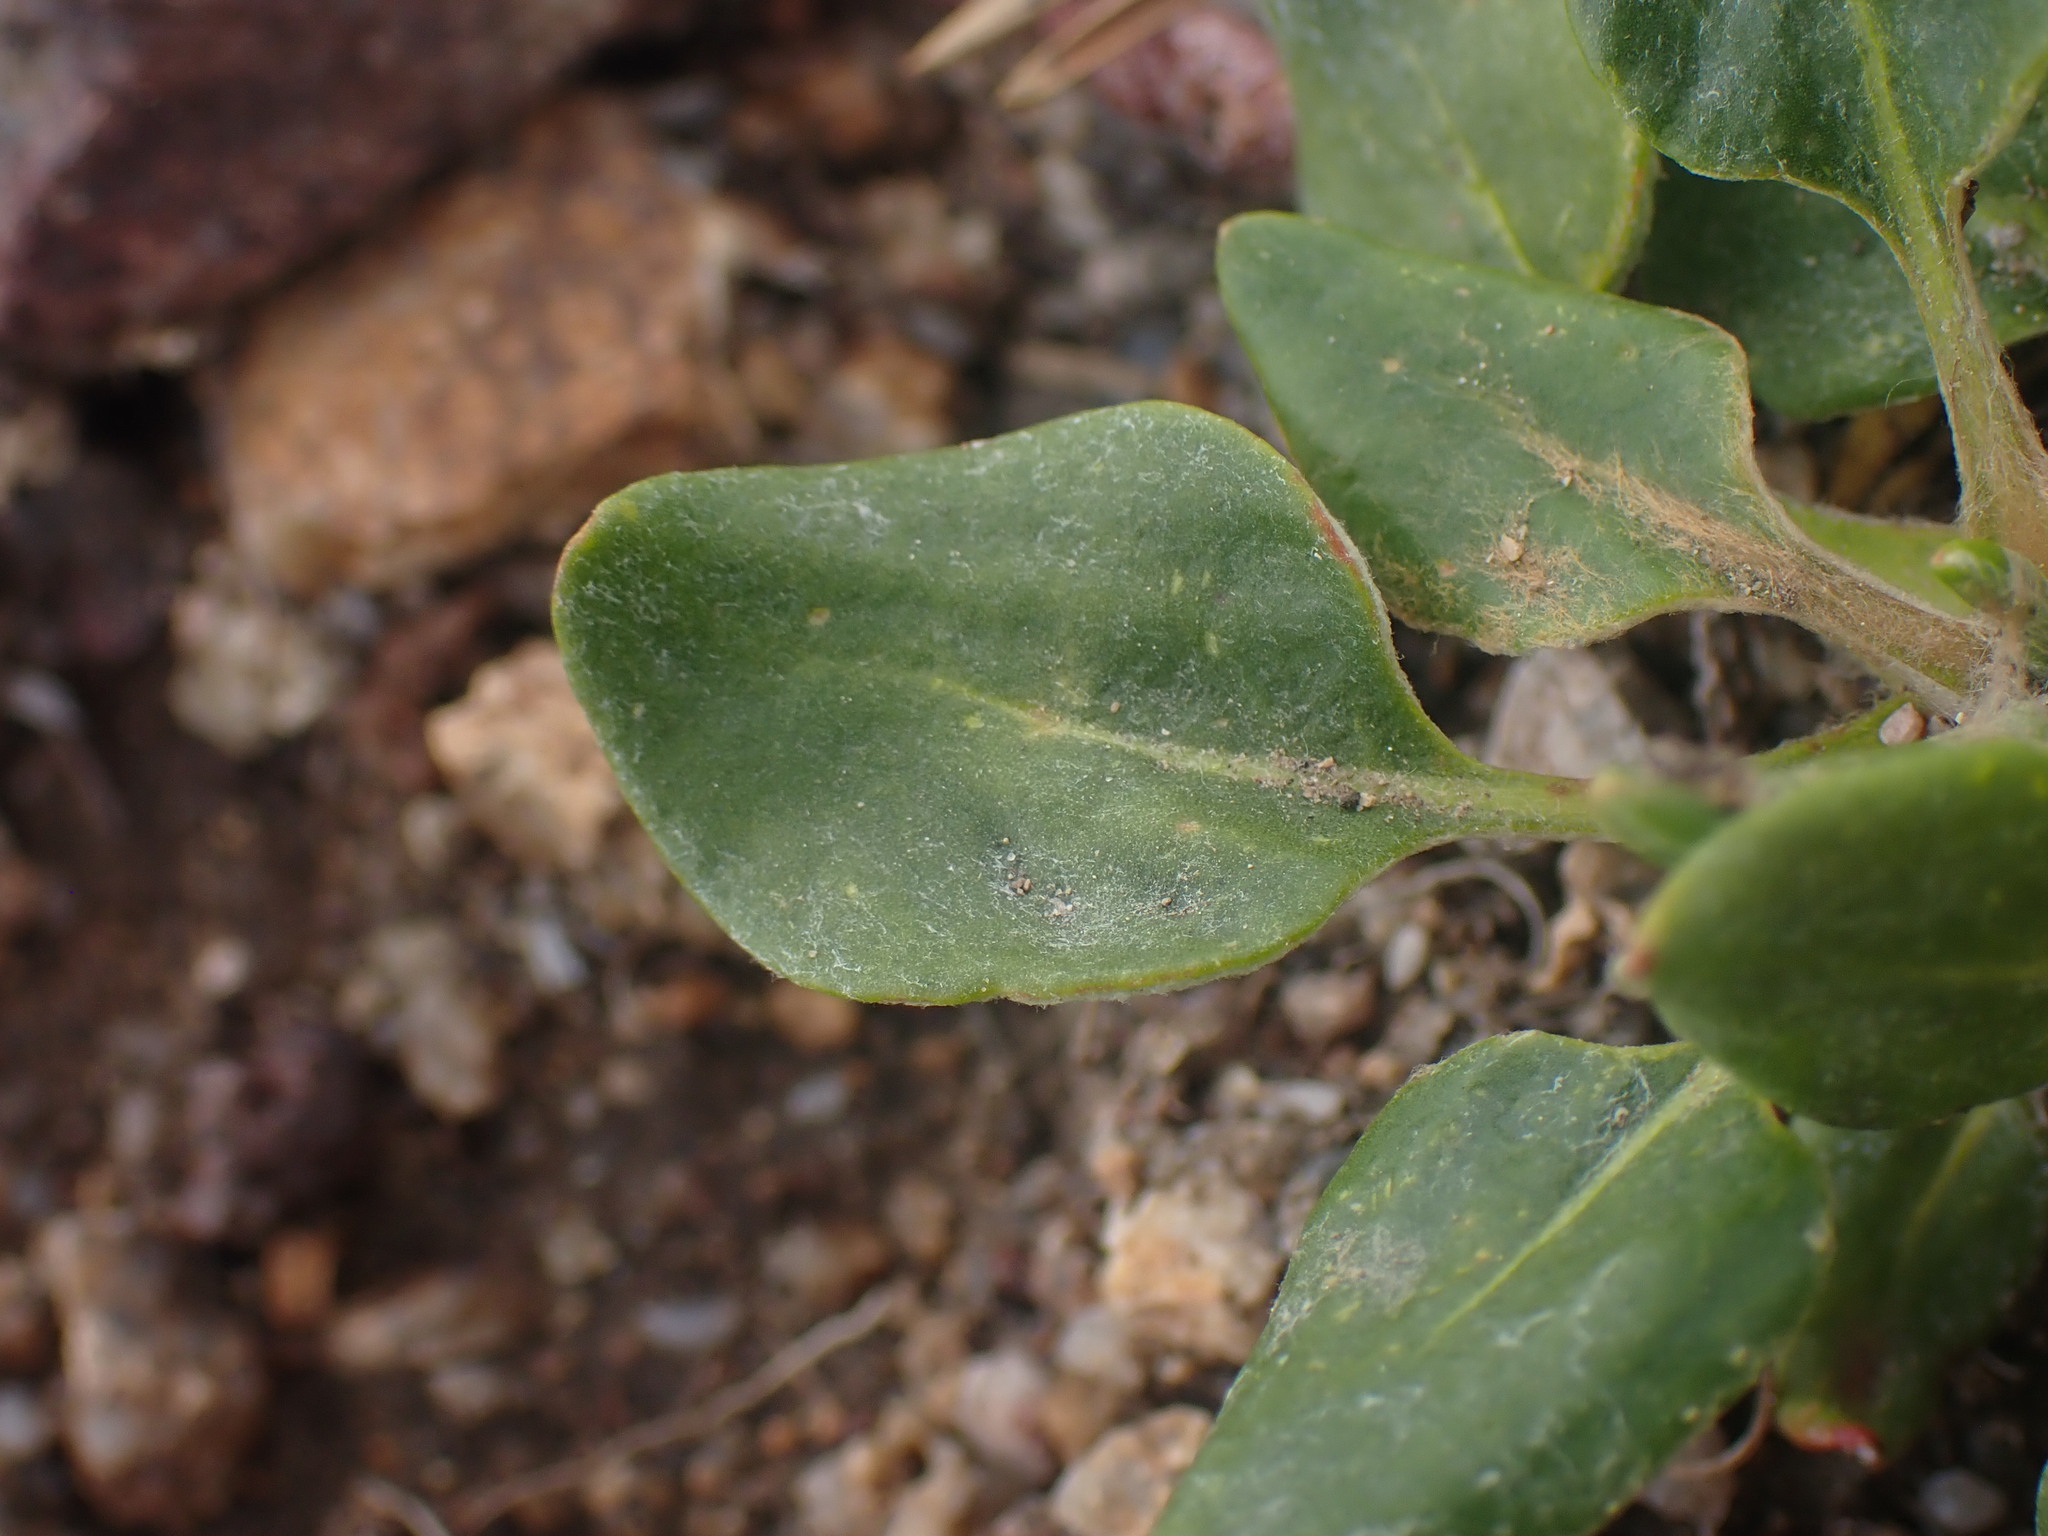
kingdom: Plantae
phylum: Tracheophyta
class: Magnoliopsida
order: Caryophyllales
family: Polygonaceae
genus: Eriogonum
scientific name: Eriogonum pyrolifolium
